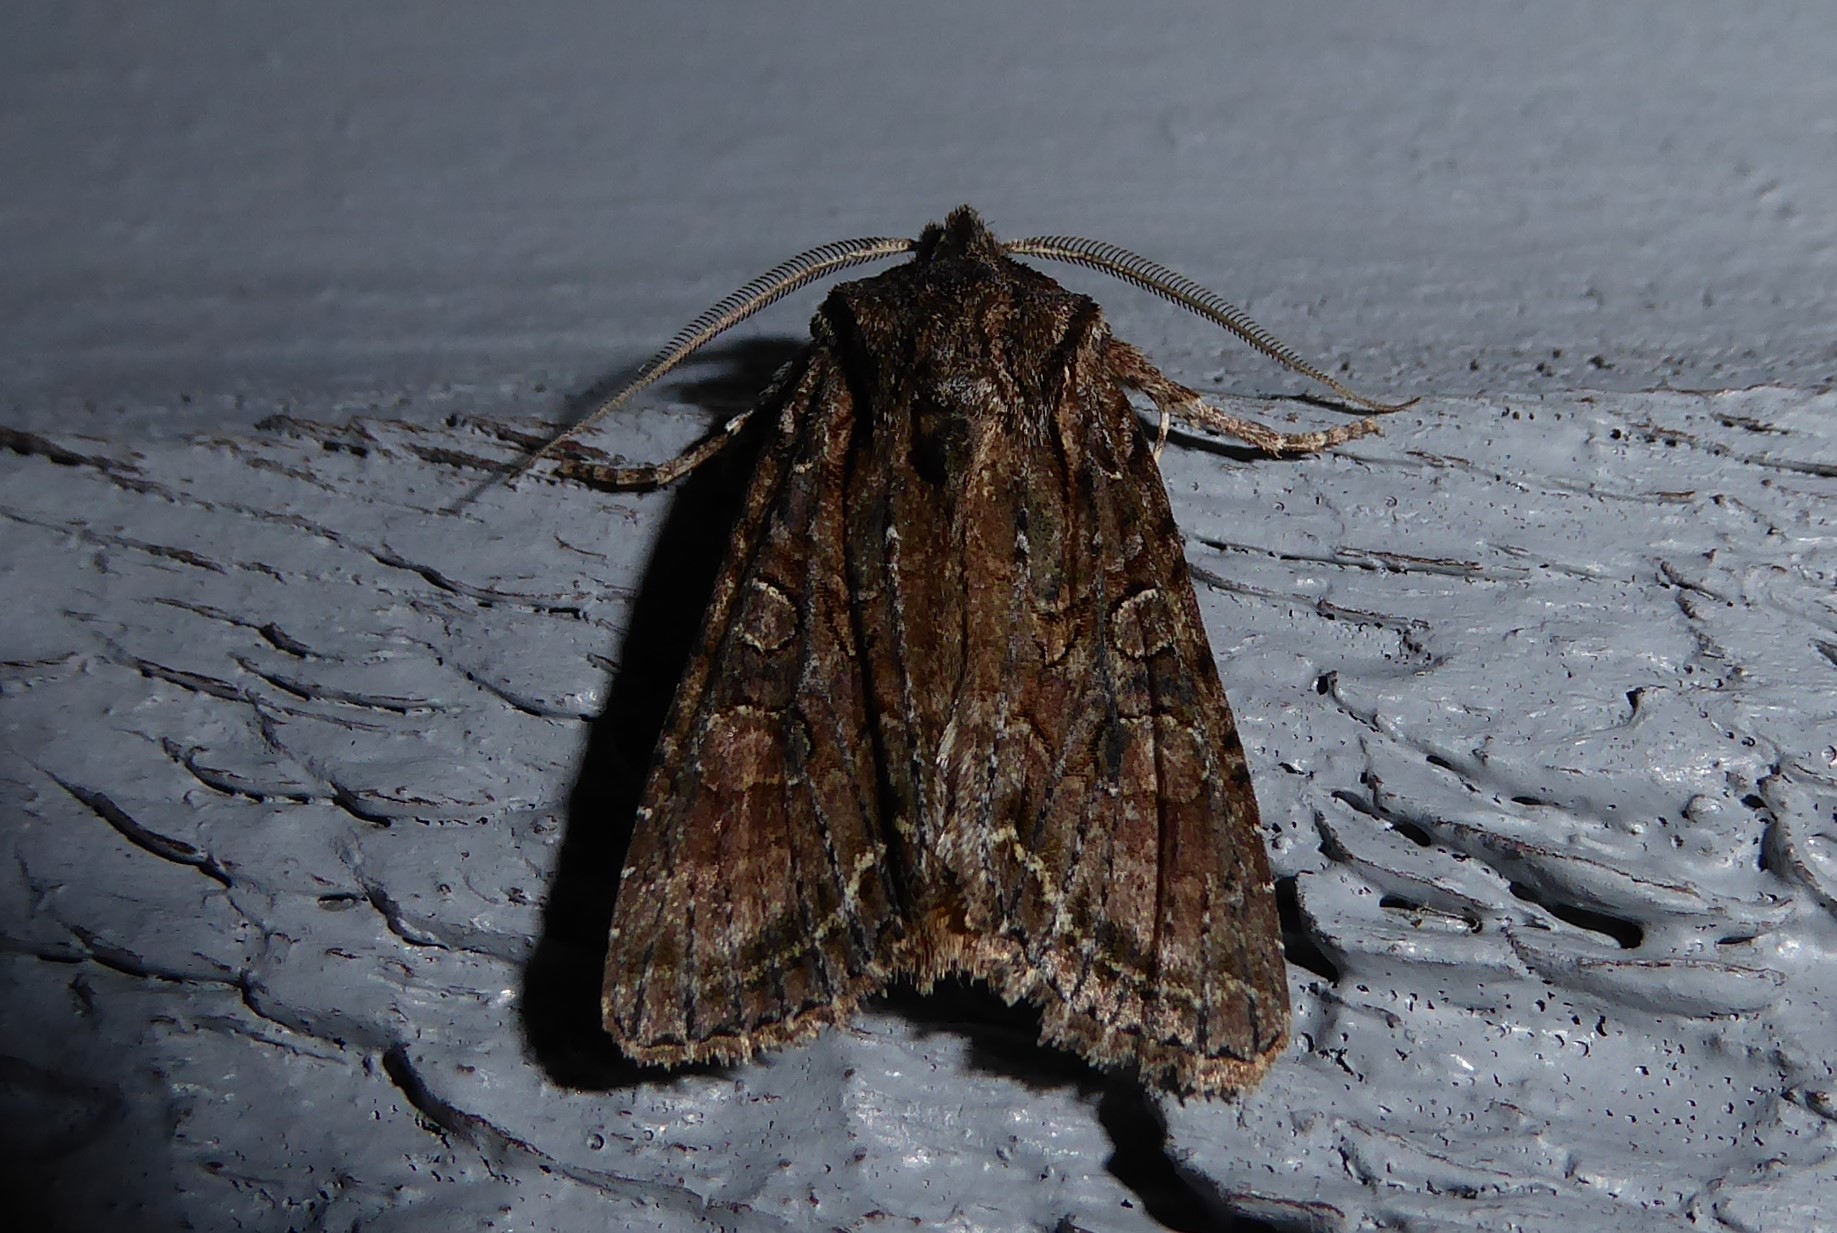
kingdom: Animalia
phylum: Arthropoda
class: Insecta
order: Lepidoptera
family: Noctuidae
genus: Ichneutica
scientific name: Ichneutica mutans
